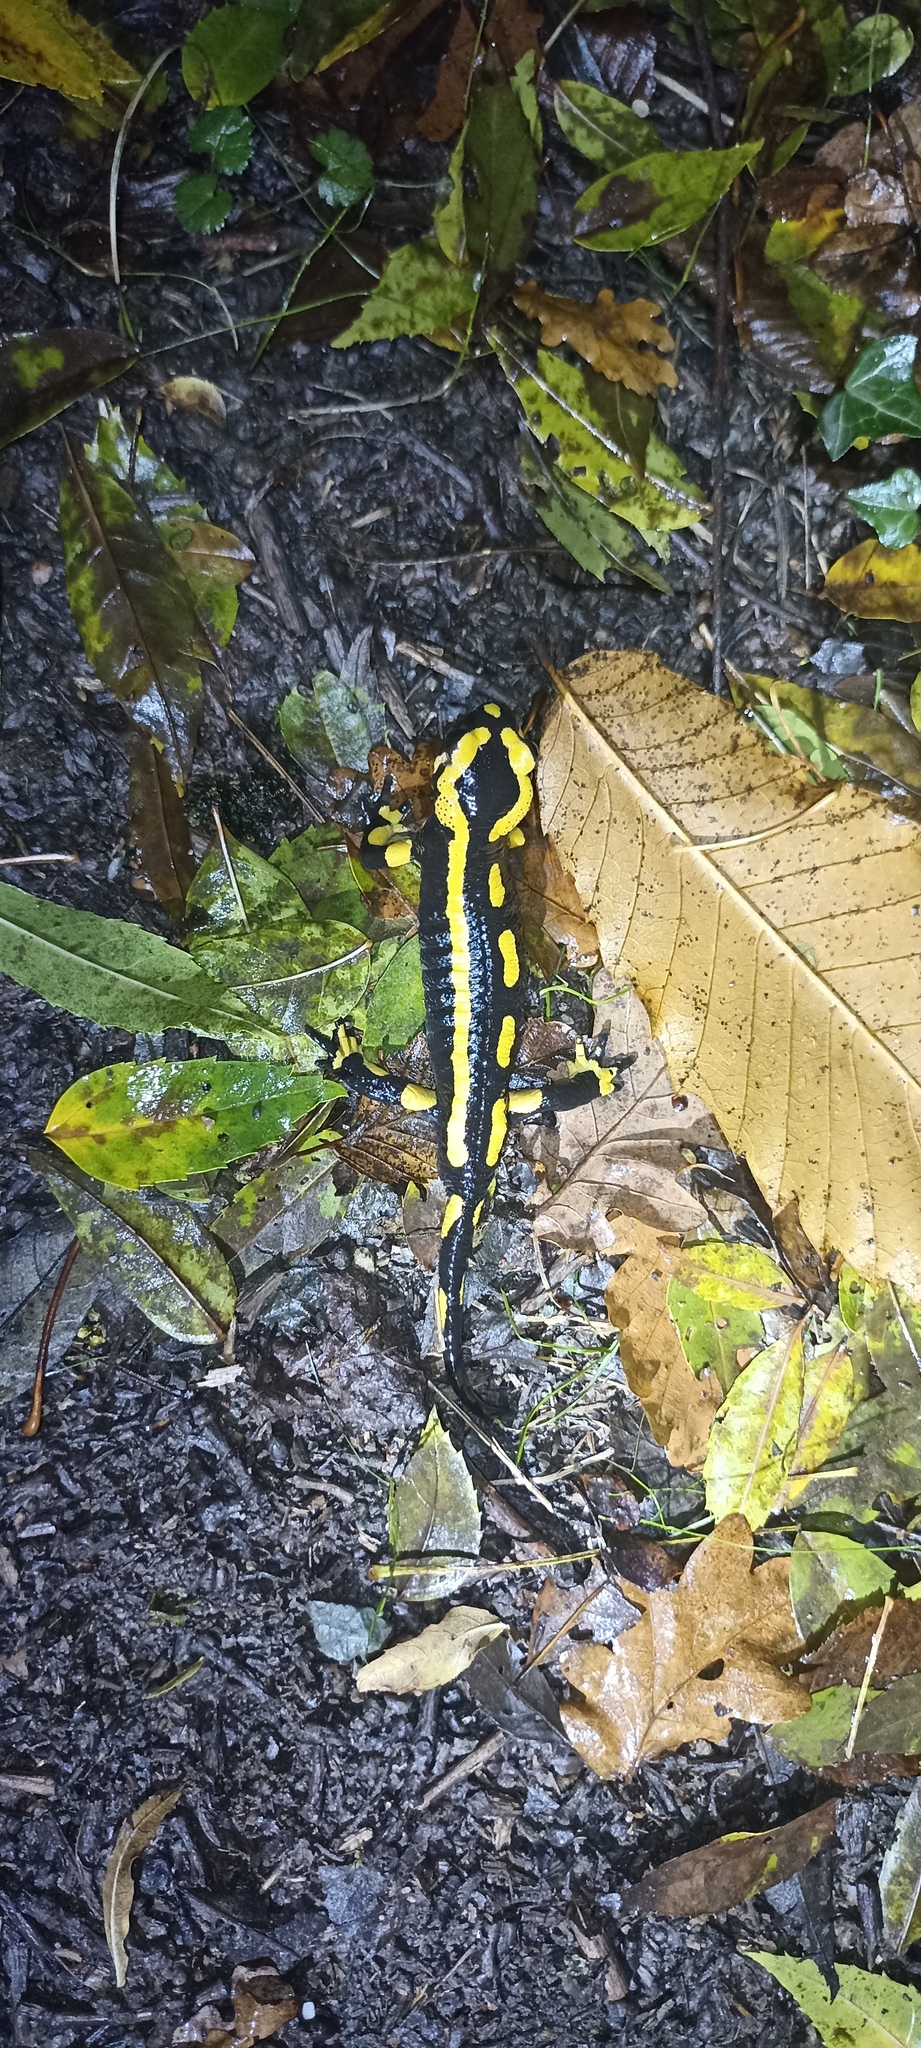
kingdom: Animalia
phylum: Chordata
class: Amphibia
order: Caudata
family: Salamandridae
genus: Salamandra
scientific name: Salamandra salamandra
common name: Fire salamander
